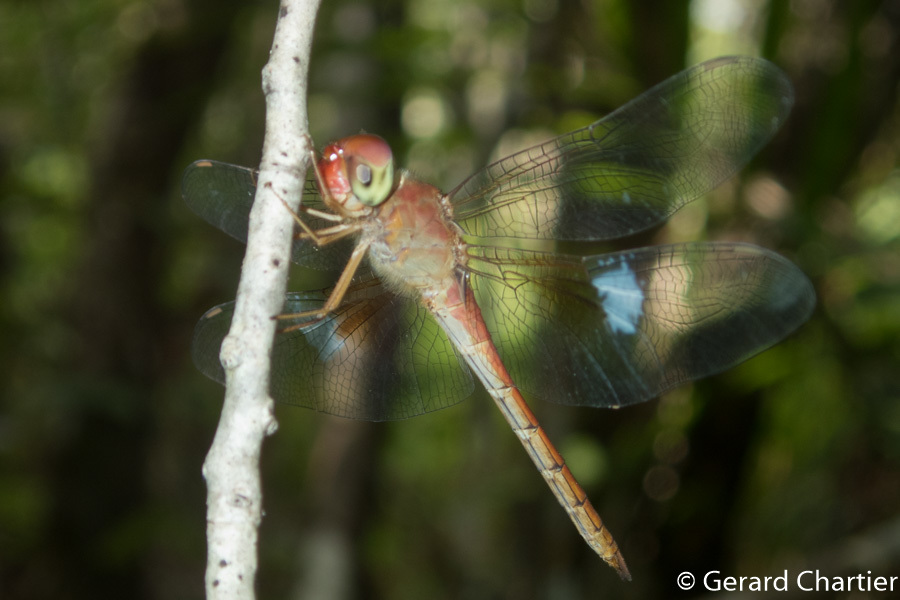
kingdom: Animalia
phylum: Arthropoda
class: Insecta
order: Odonata
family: Libellulidae
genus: Tholymis
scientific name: Tholymis tillarga
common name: Coral-tailed cloud wing
